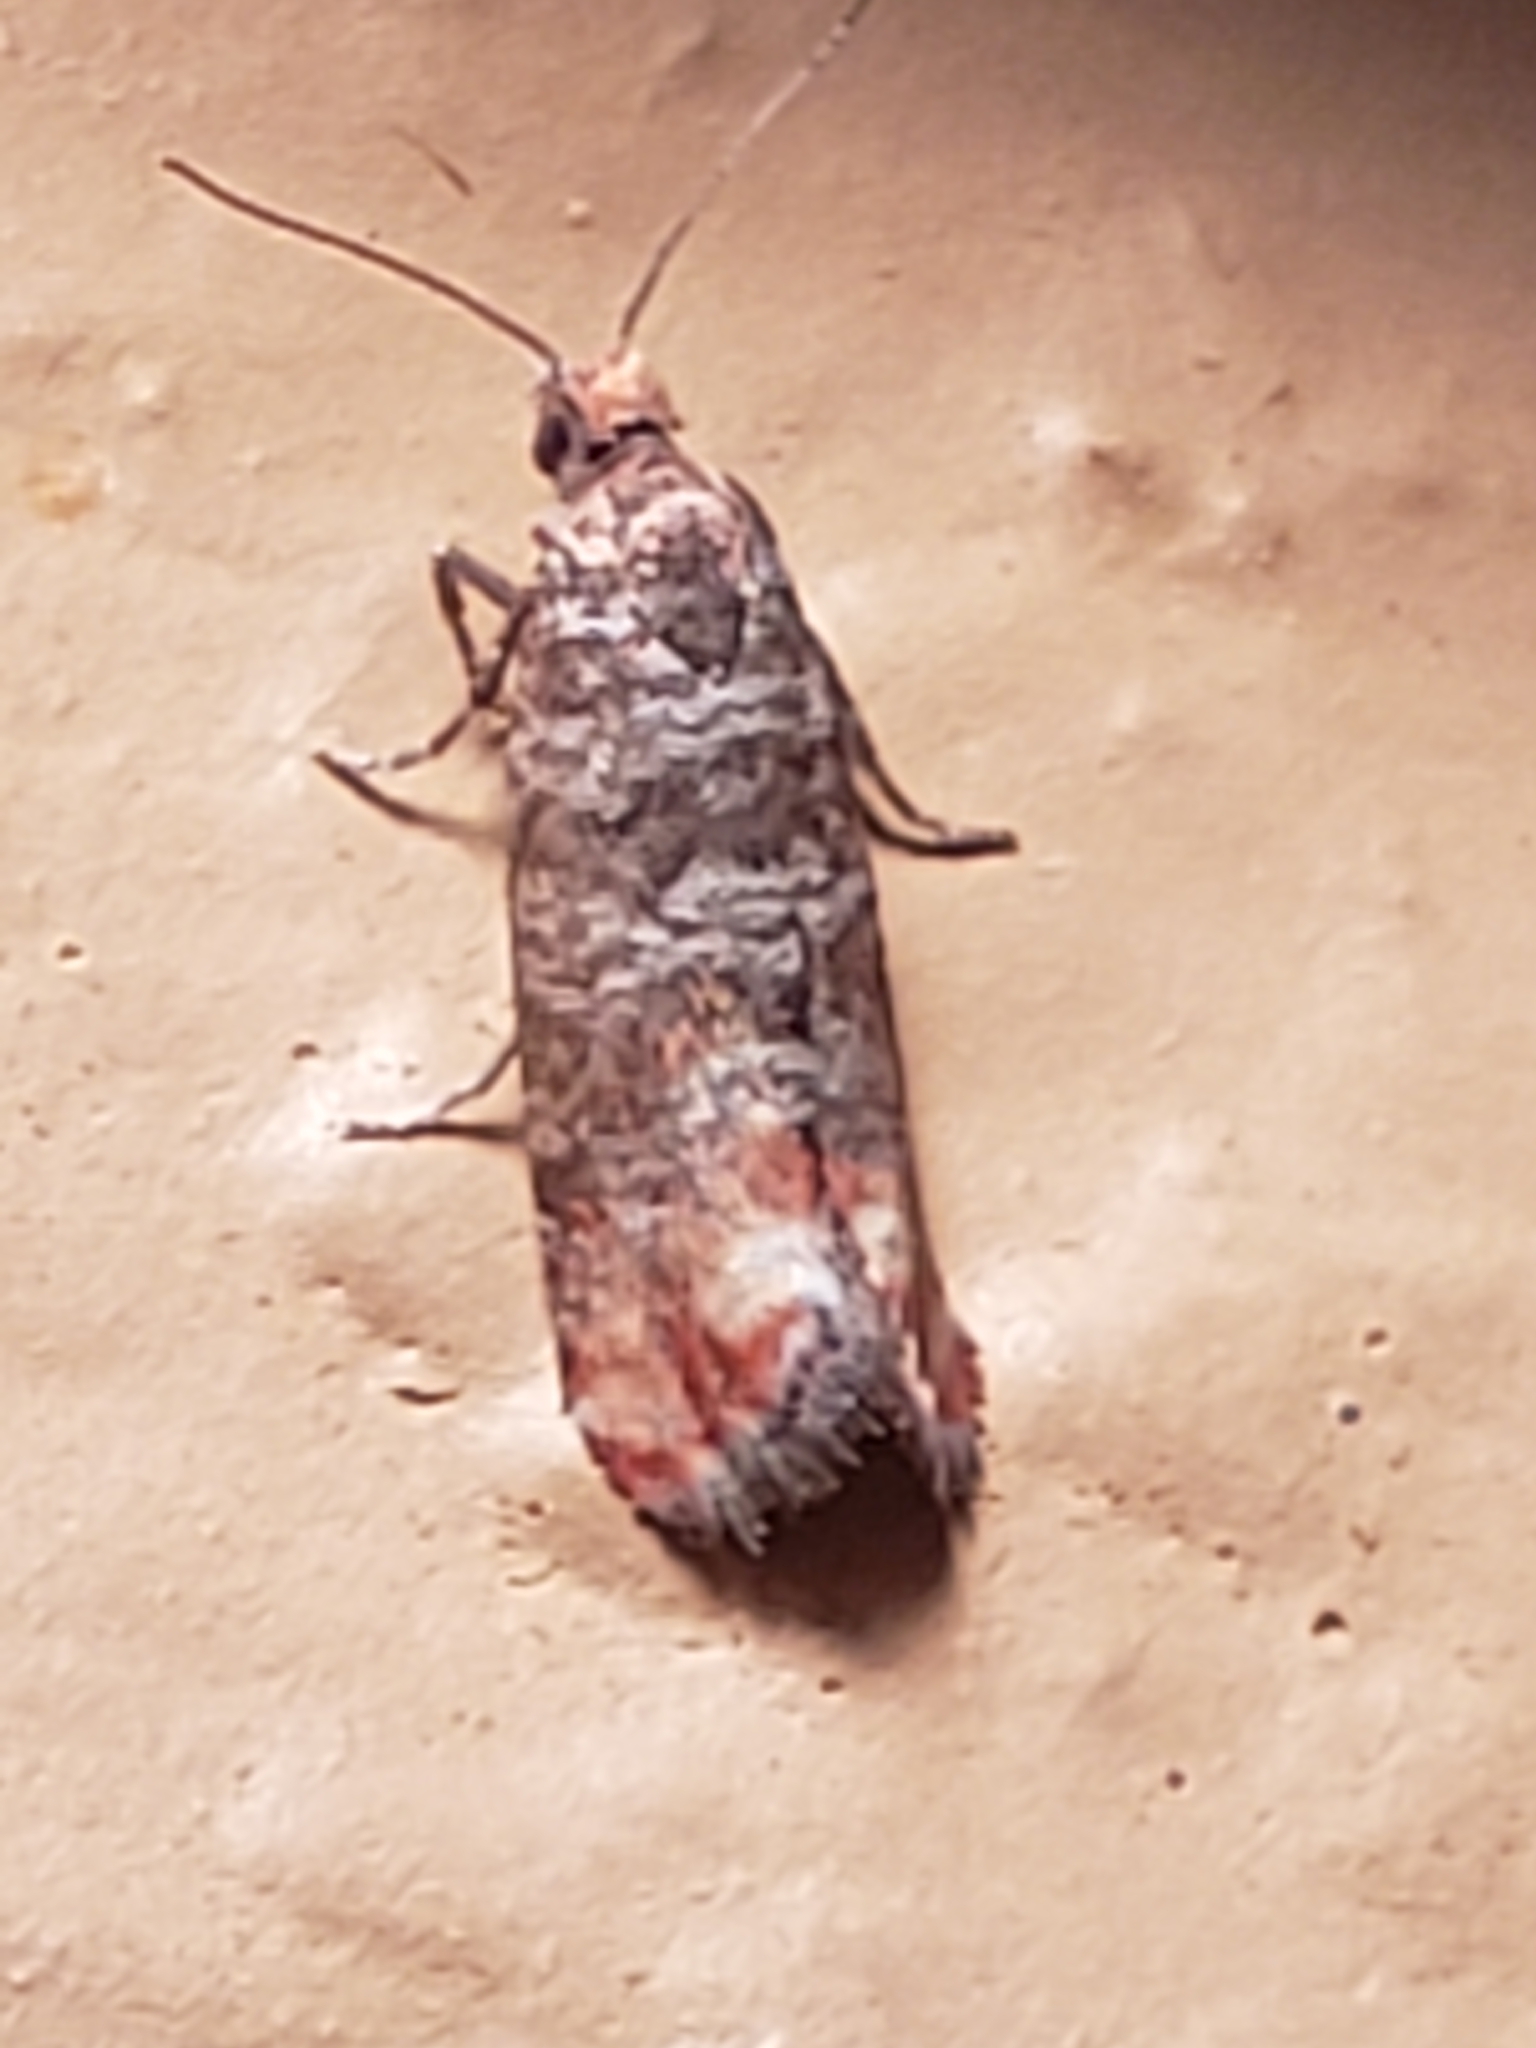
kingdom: Animalia
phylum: Arthropoda
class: Insecta
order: Lepidoptera
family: Tortricidae
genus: Rhyacionia
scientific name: Rhyacionia
